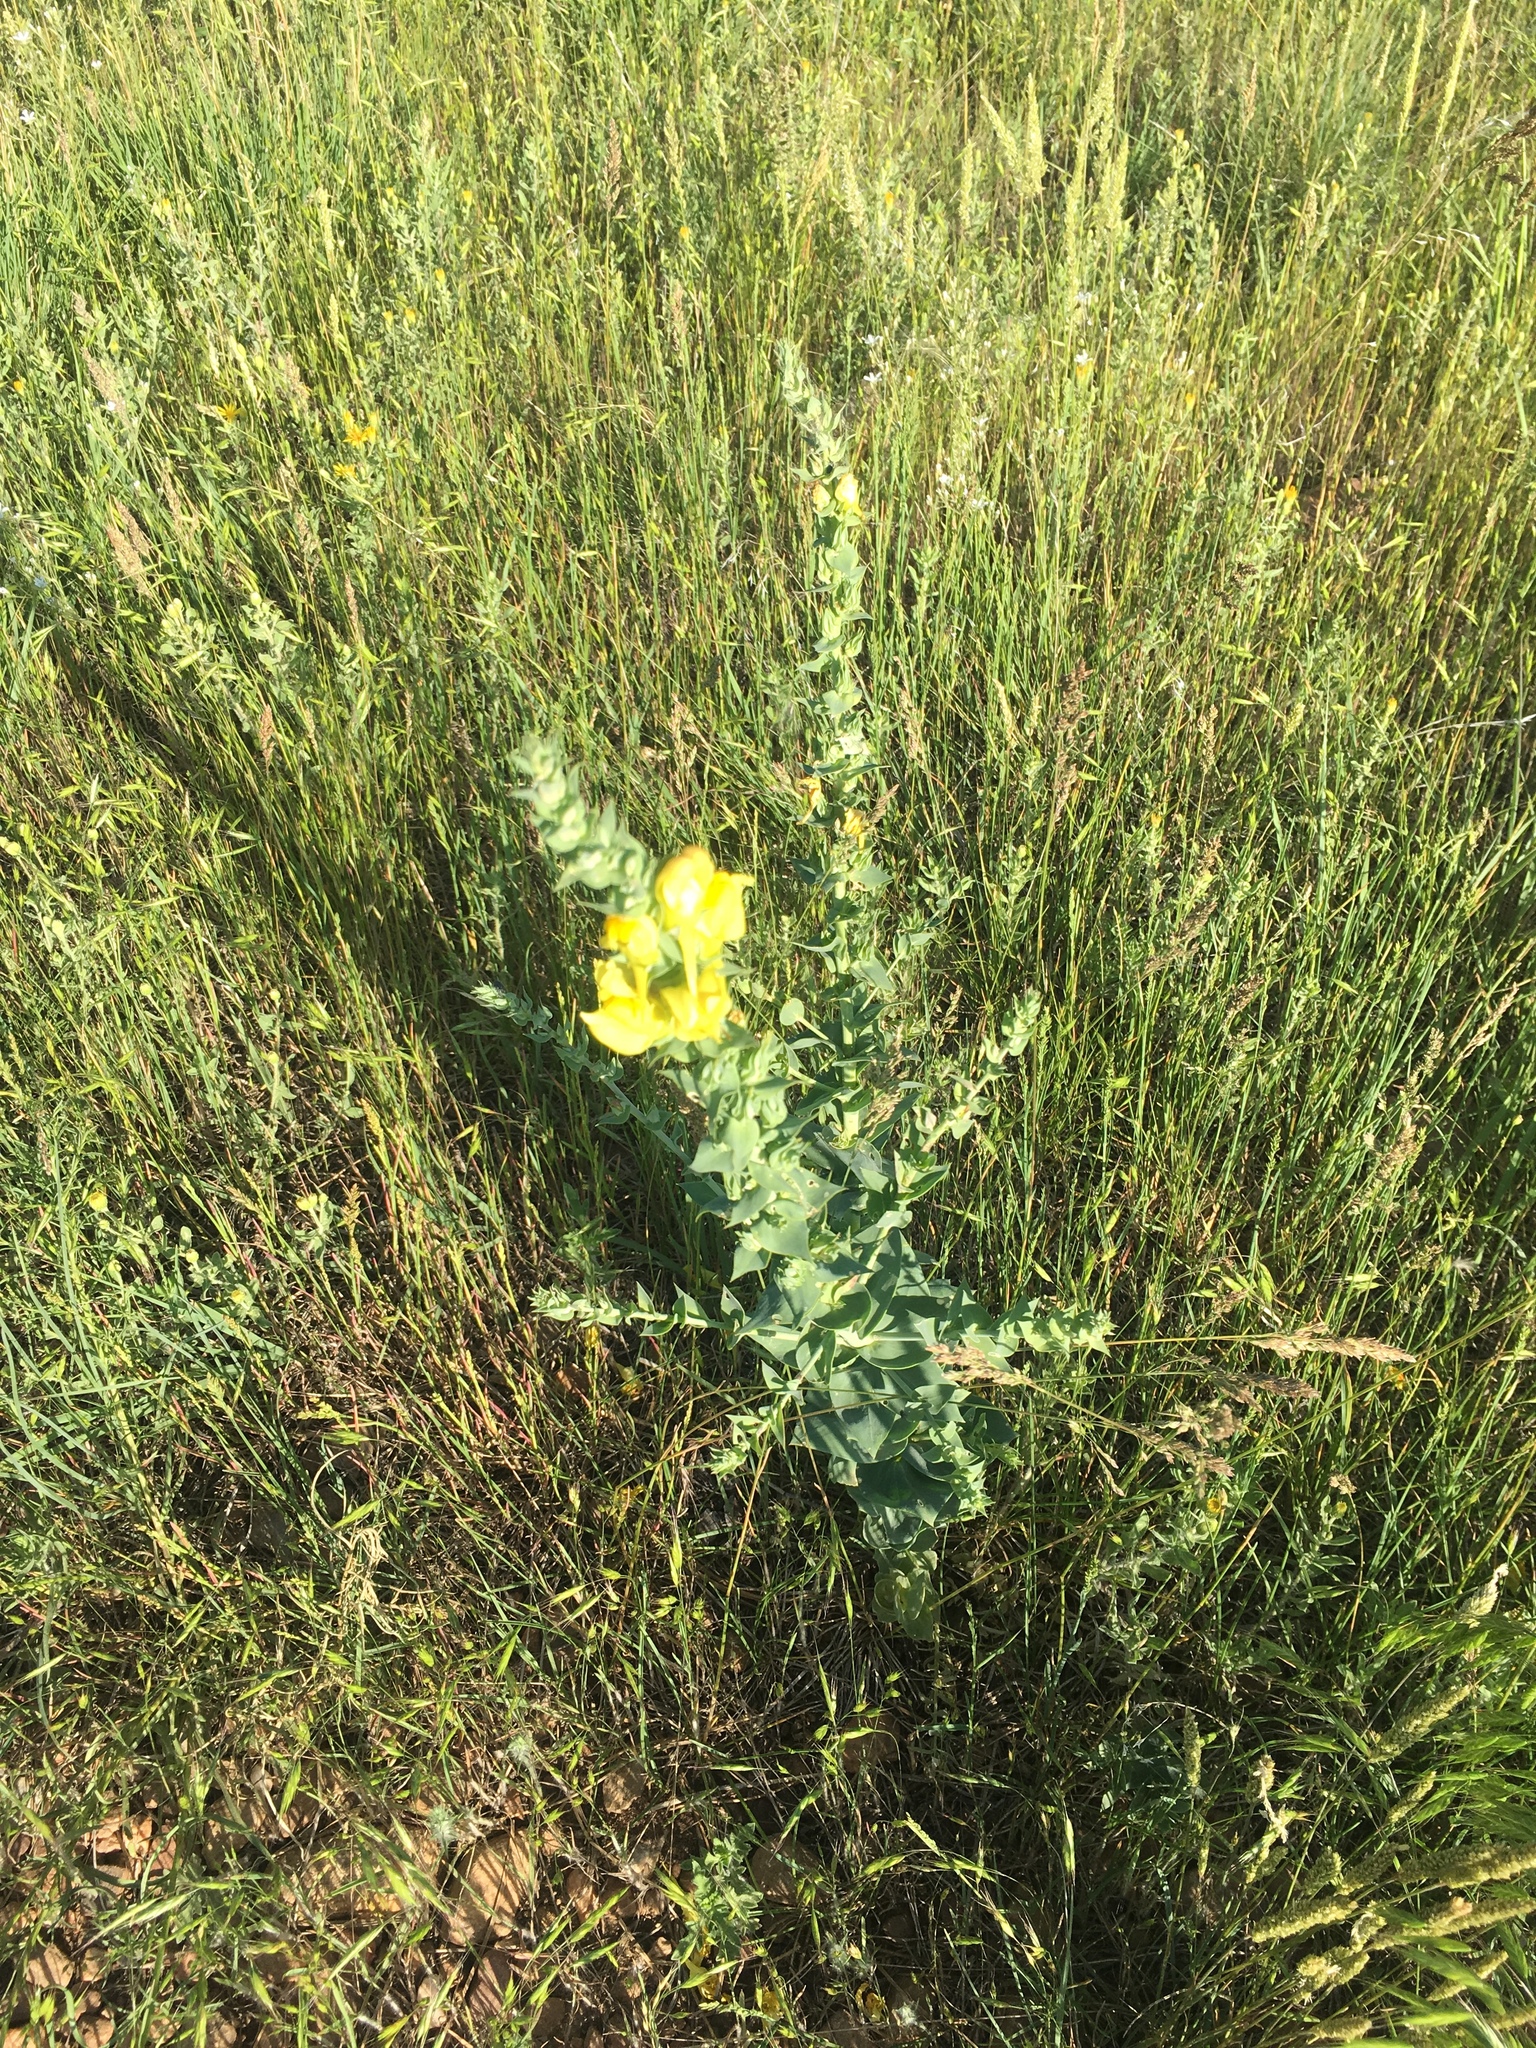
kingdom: Plantae
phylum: Tracheophyta
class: Magnoliopsida
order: Lamiales
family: Plantaginaceae
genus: Linaria
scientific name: Linaria dalmatica
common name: Dalmatian toadflax
